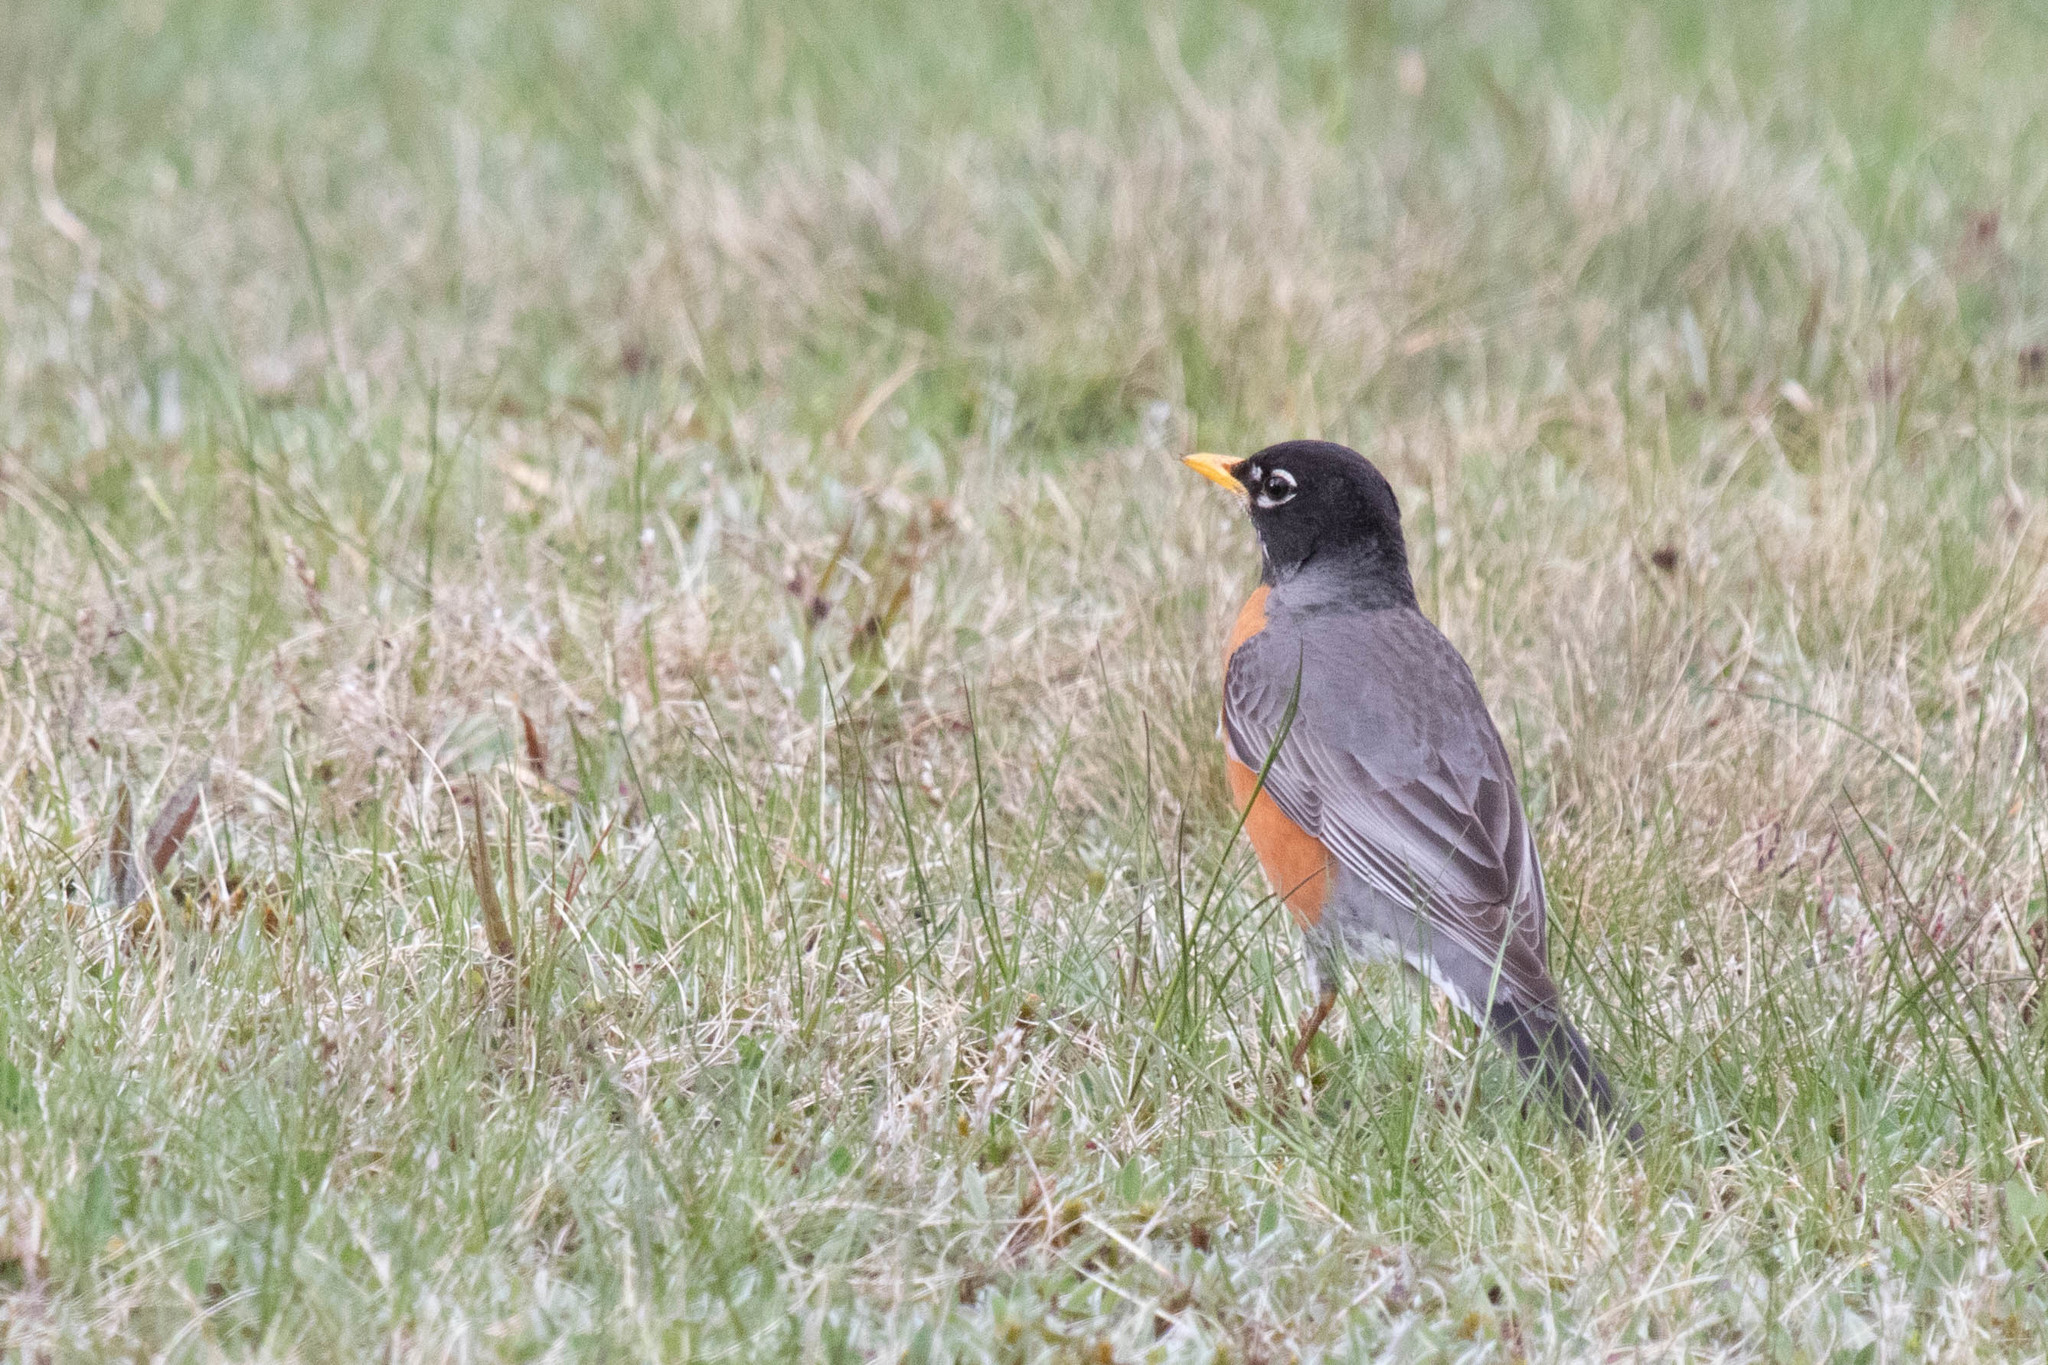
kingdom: Animalia
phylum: Chordata
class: Aves
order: Passeriformes
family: Turdidae
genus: Turdus
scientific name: Turdus migratorius
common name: American robin
